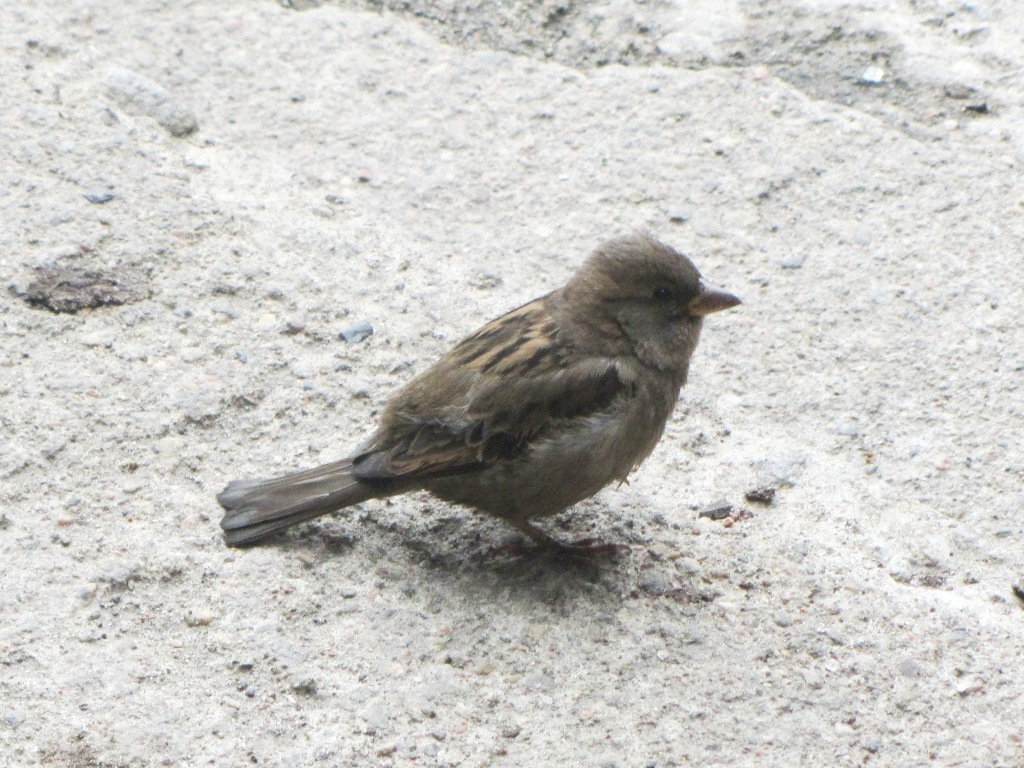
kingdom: Animalia
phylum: Chordata
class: Aves
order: Passeriformes
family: Passeridae
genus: Passer
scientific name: Passer domesticus
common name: House sparrow
